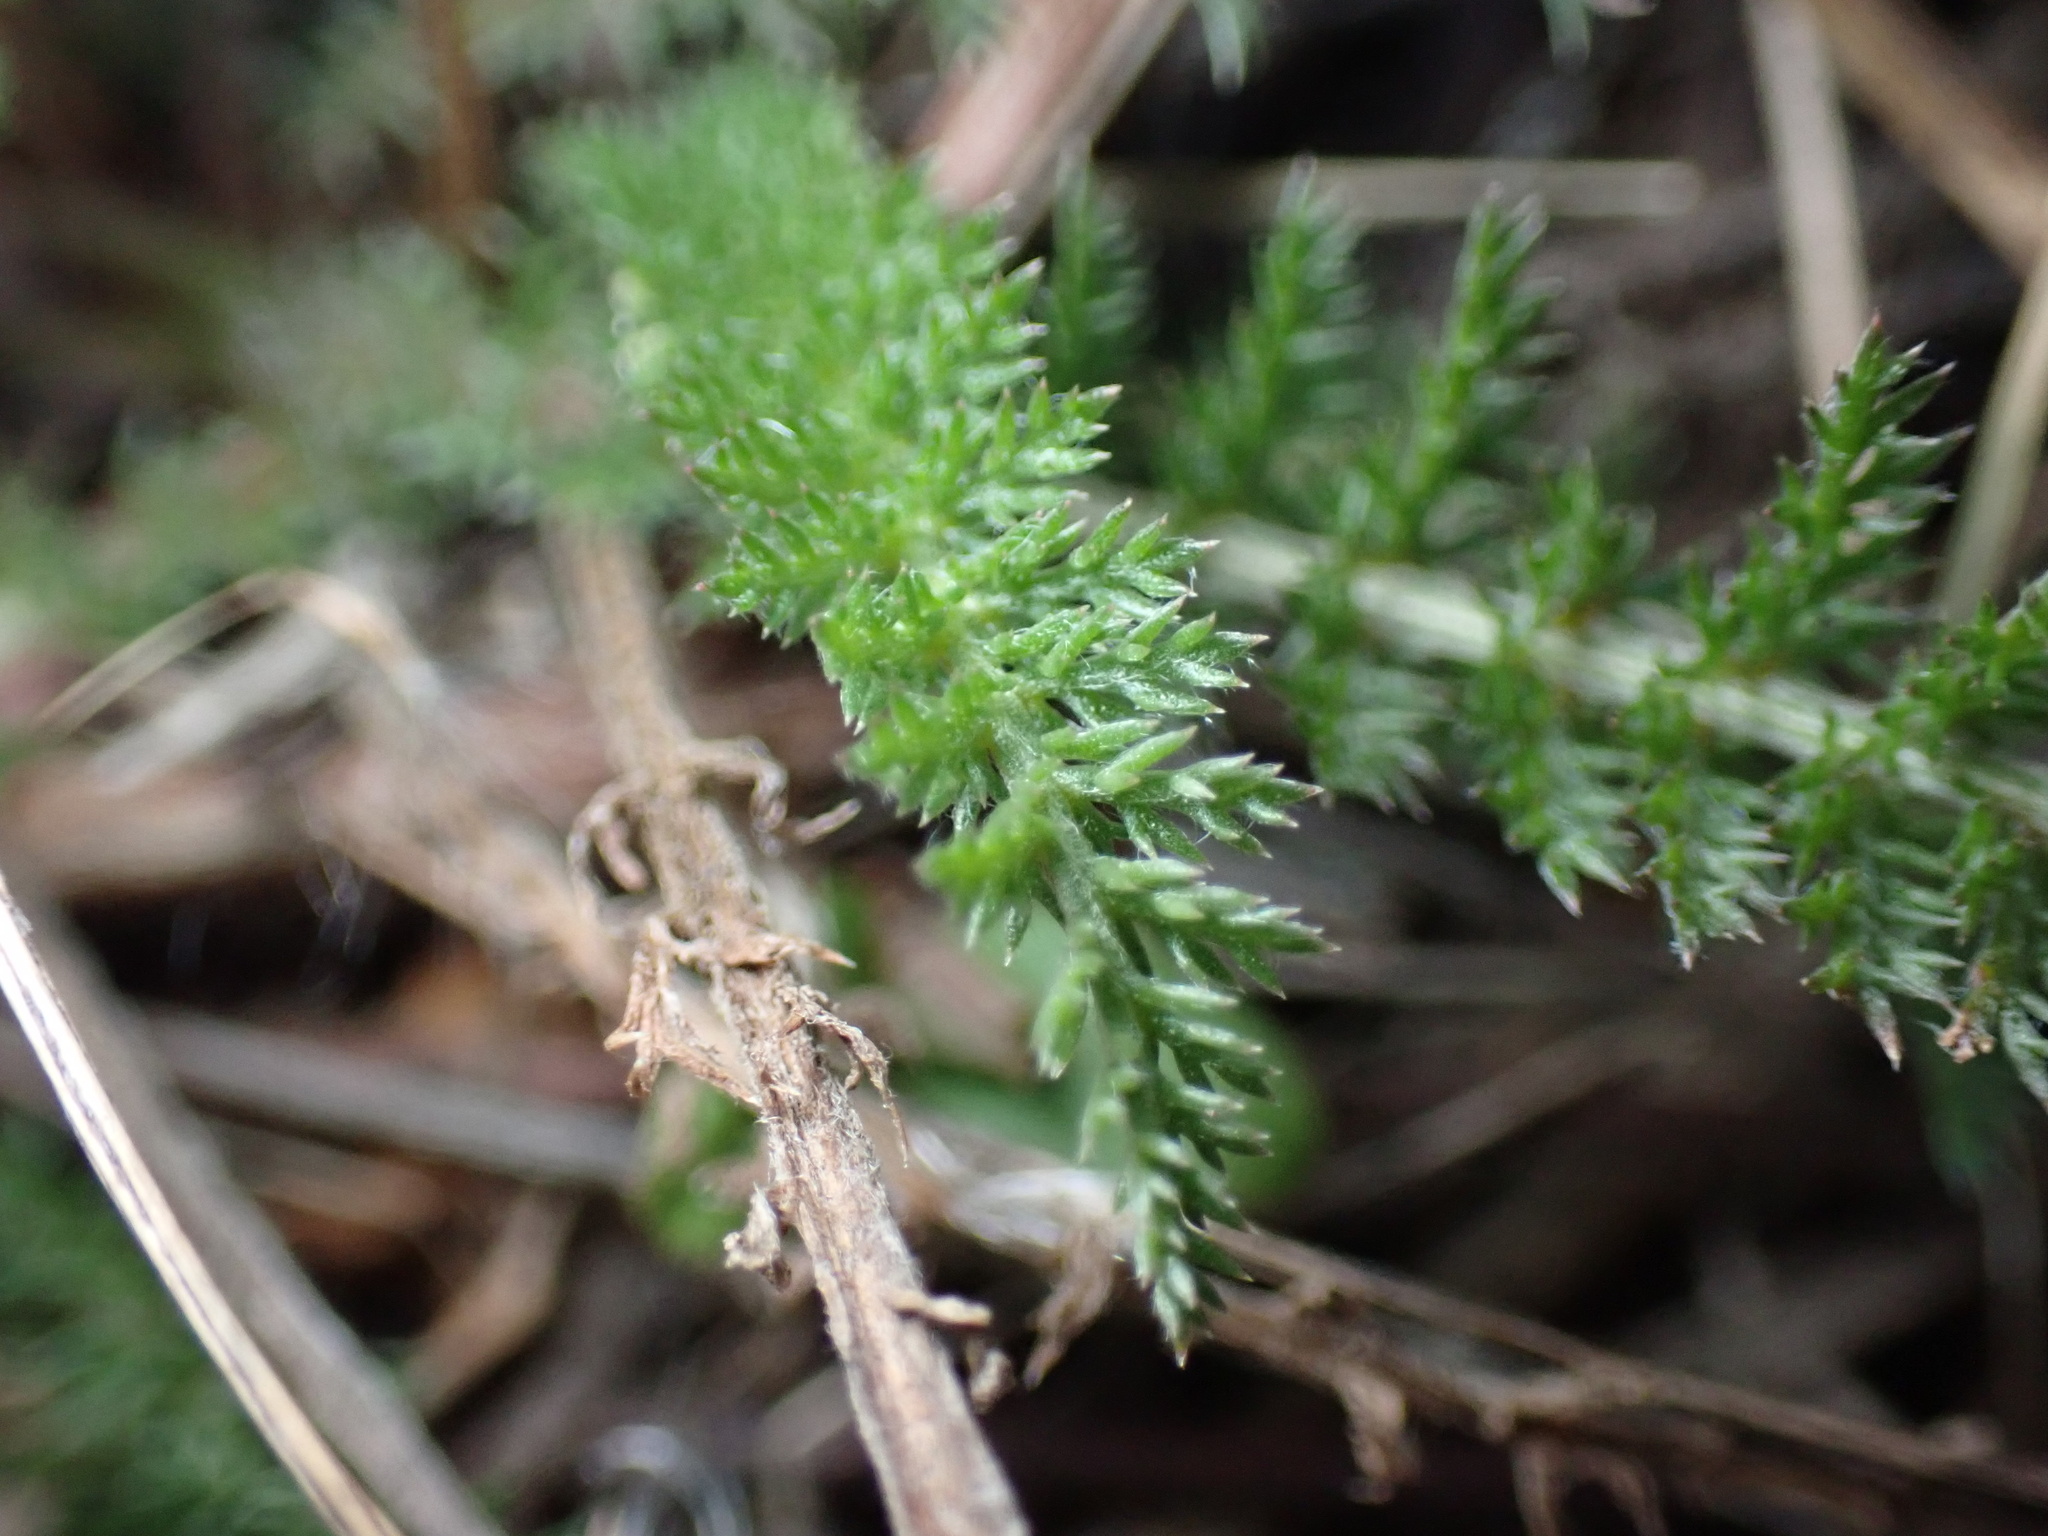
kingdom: Plantae
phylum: Tracheophyta
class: Magnoliopsida
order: Asterales
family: Asteraceae
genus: Achillea
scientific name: Achillea millefolium
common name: Yarrow
